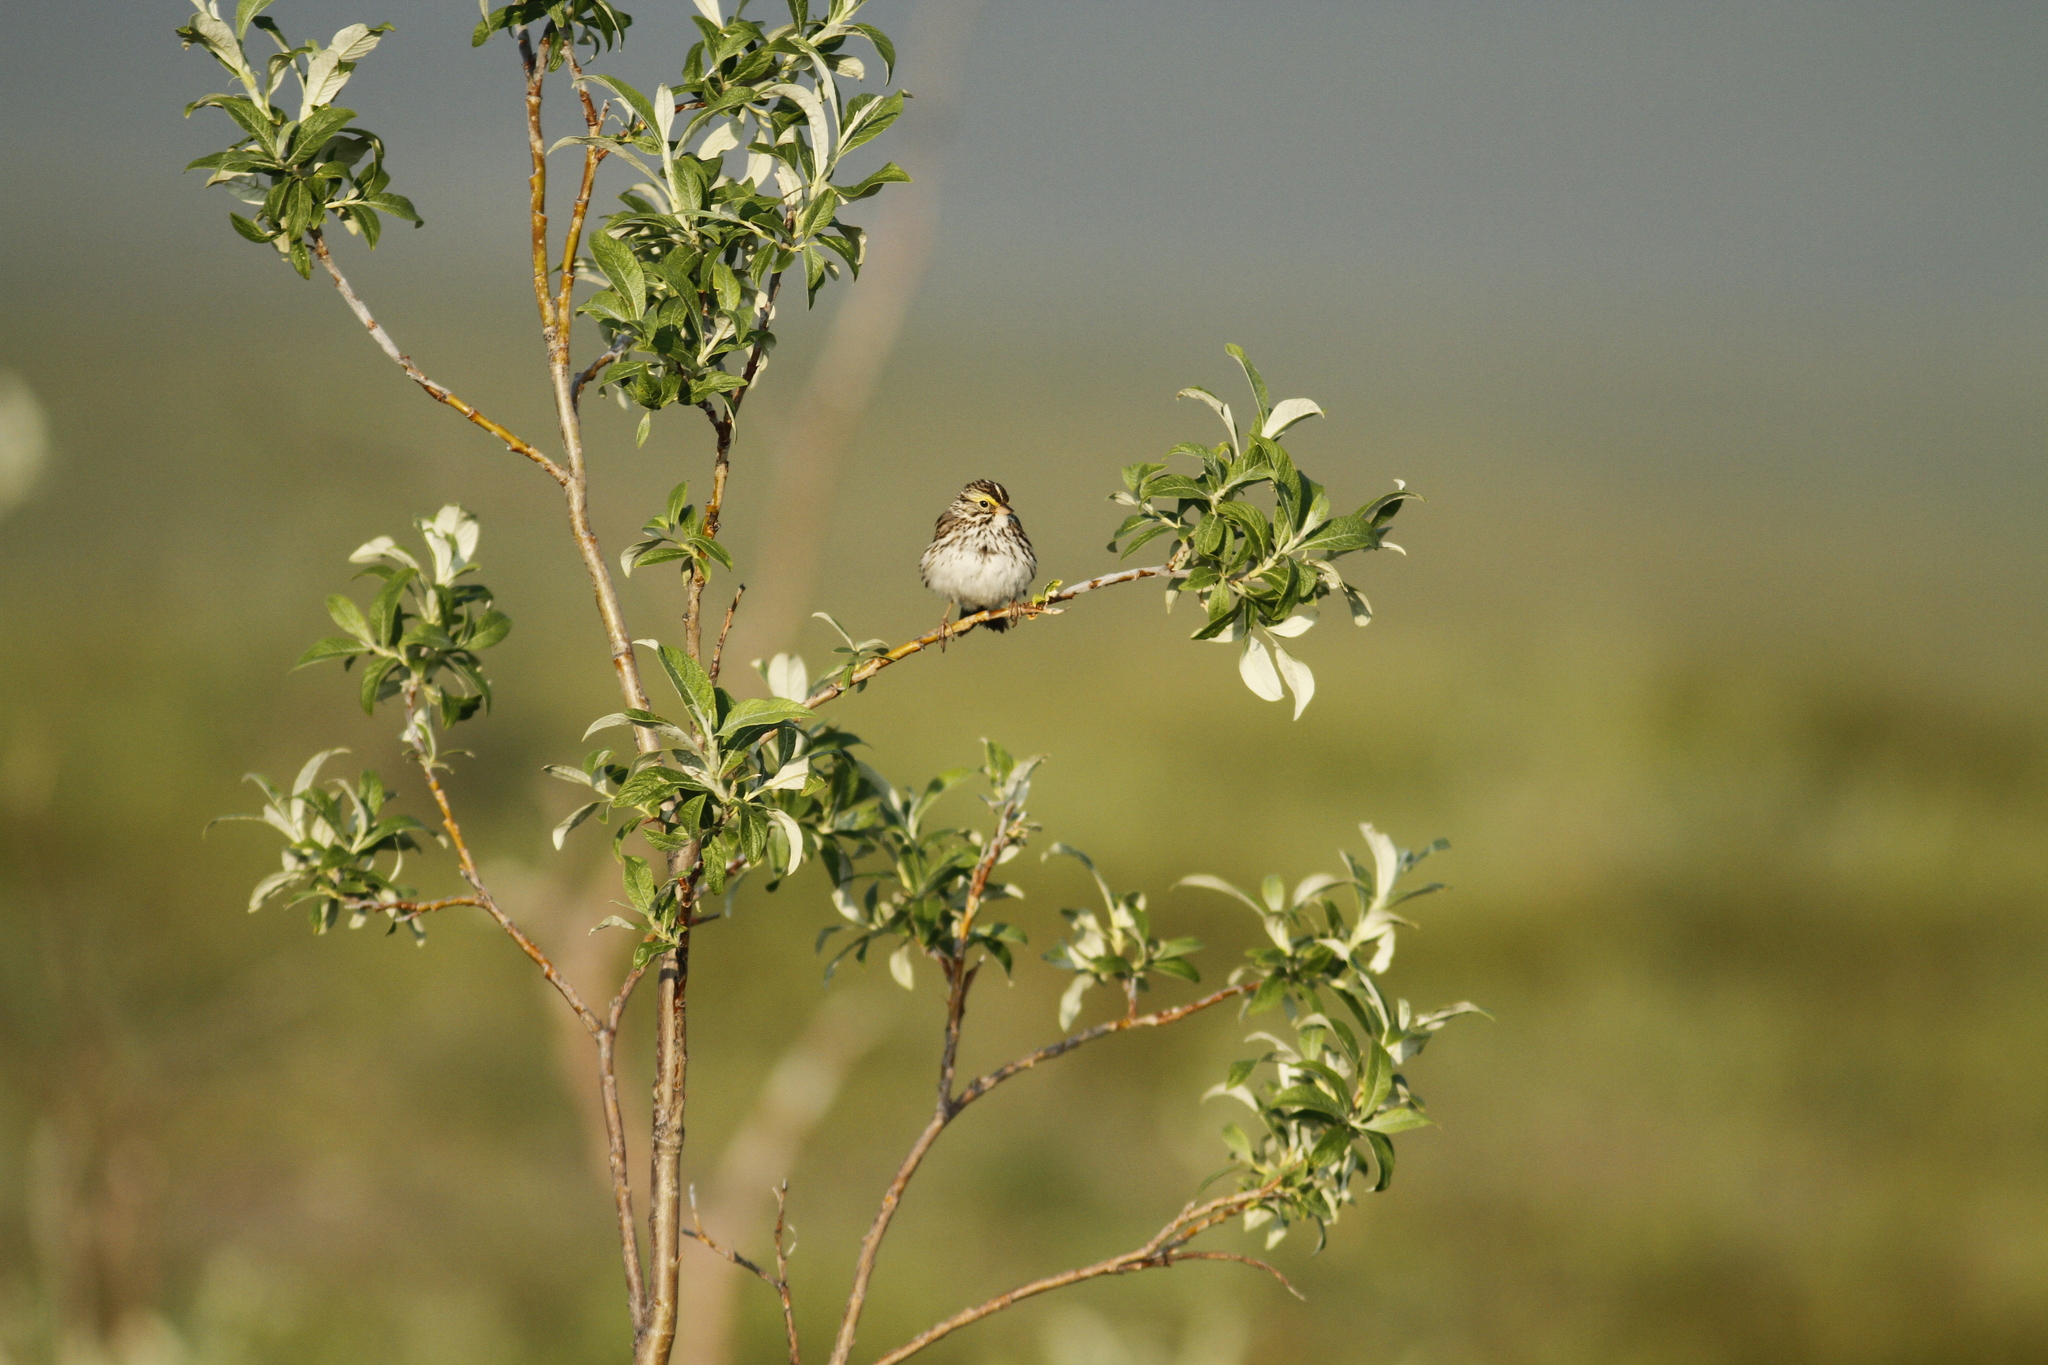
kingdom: Animalia
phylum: Chordata
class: Aves
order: Passeriformes
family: Passerellidae
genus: Passerculus
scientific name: Passerculus sandwichensis
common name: Savannah sparrow
